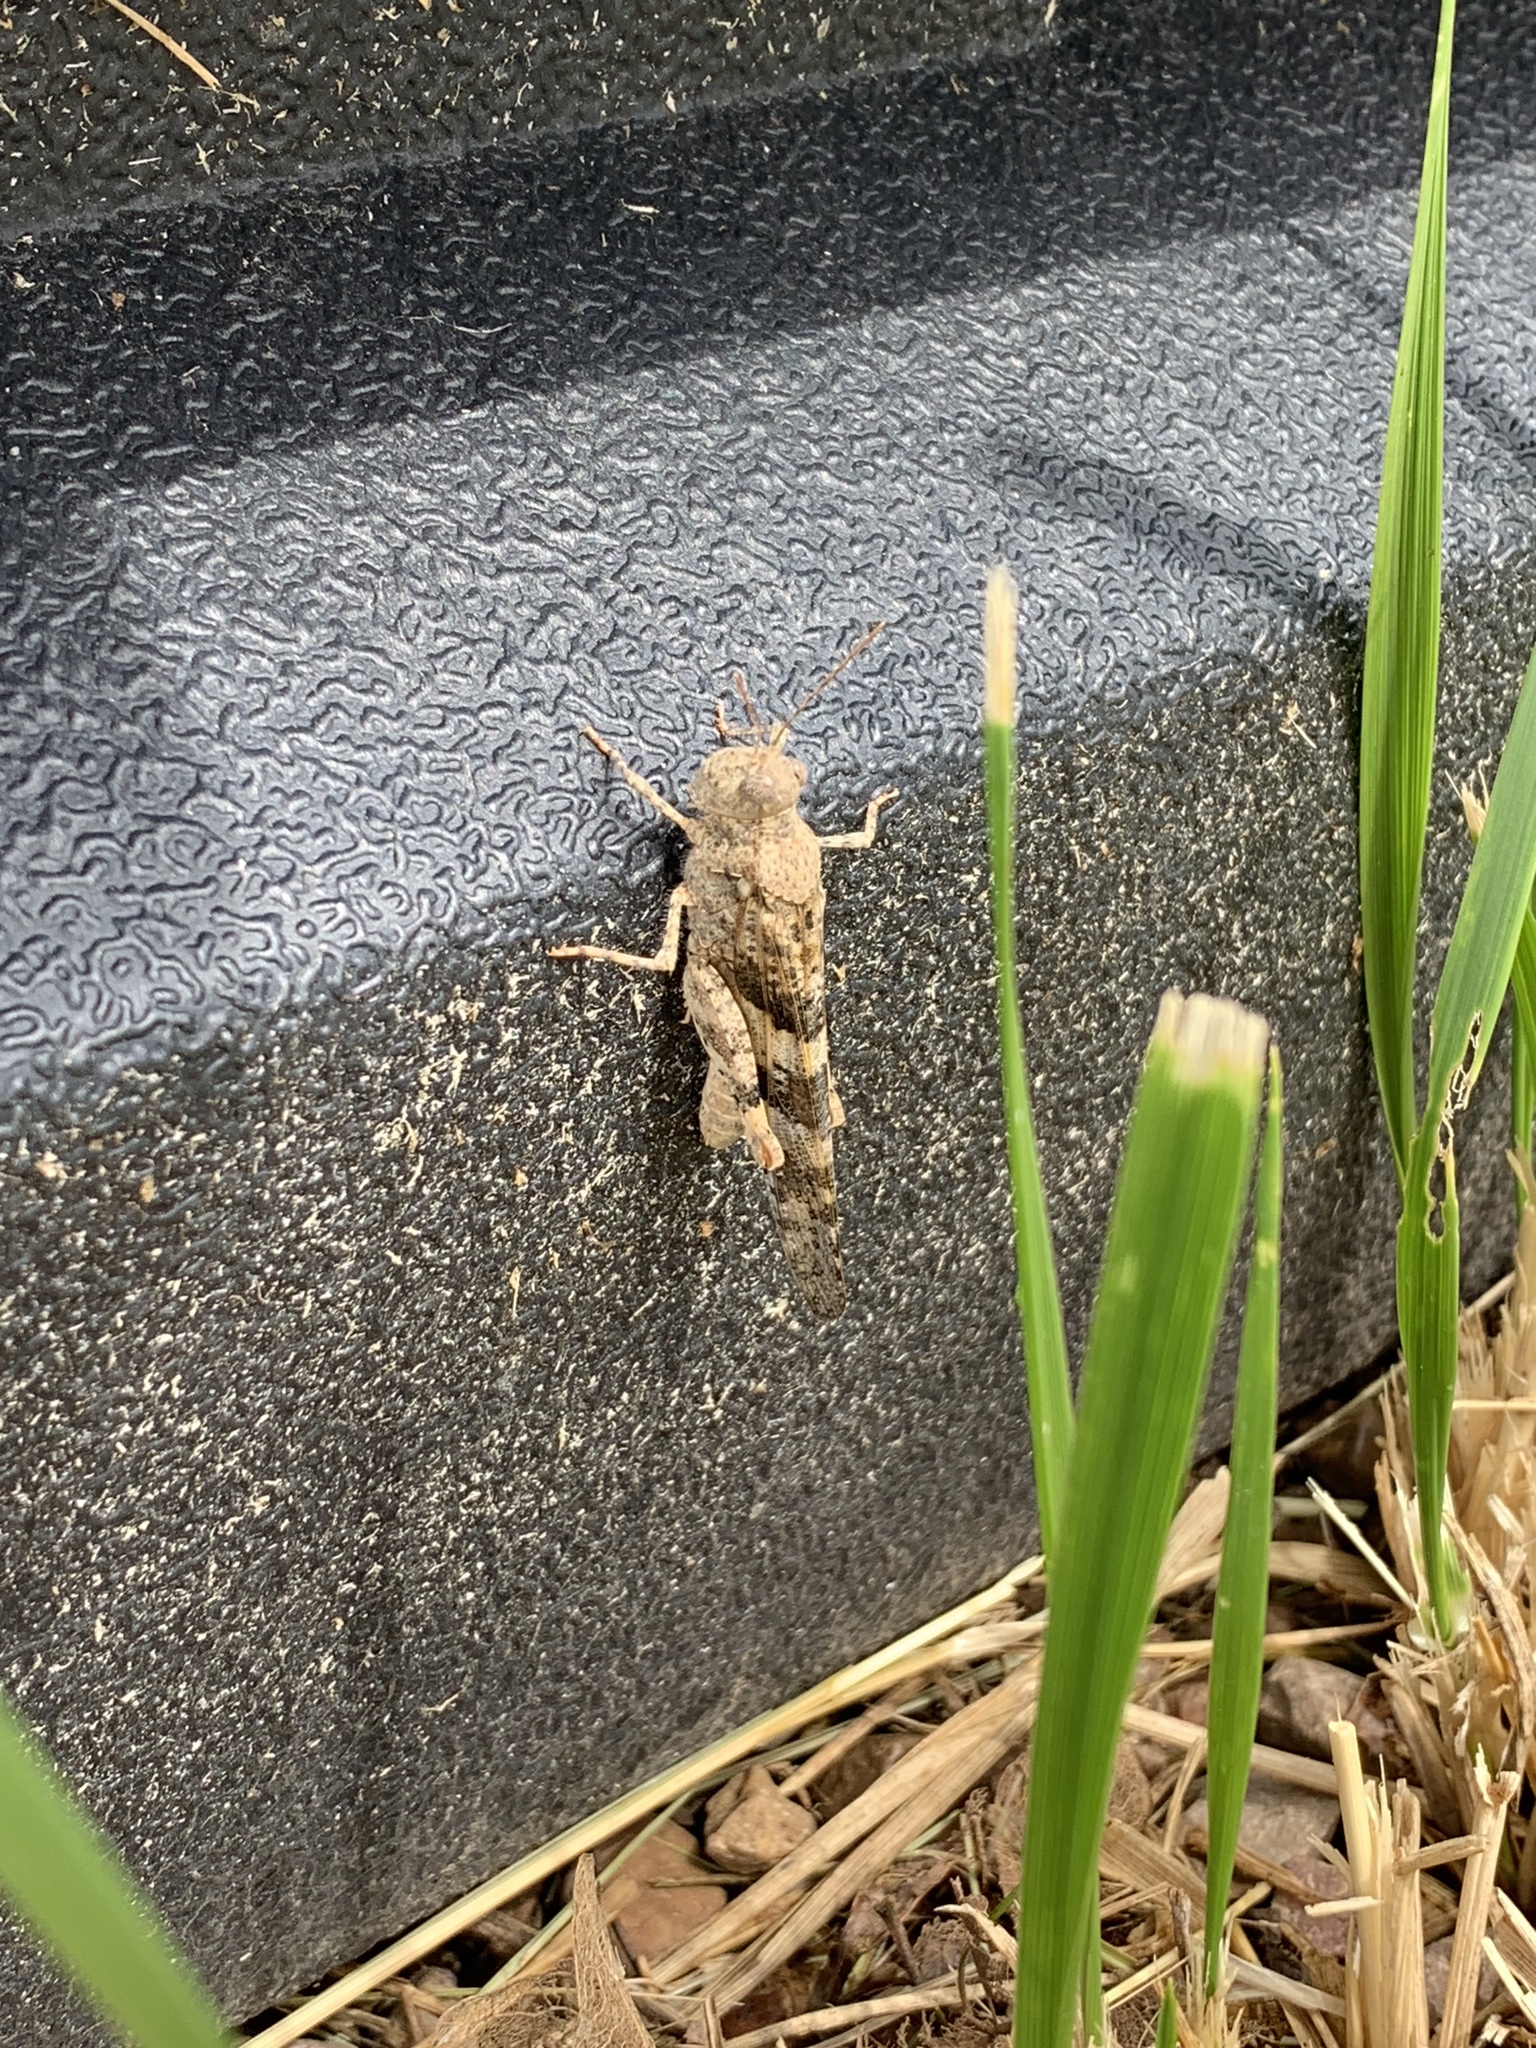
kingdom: Animalia
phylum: Arthropoda
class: Insecta
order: Orthoptera
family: Acrididae
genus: Trimerotropis
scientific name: Trimerotropis pallidipennis
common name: Pallid-winged grasshopper
